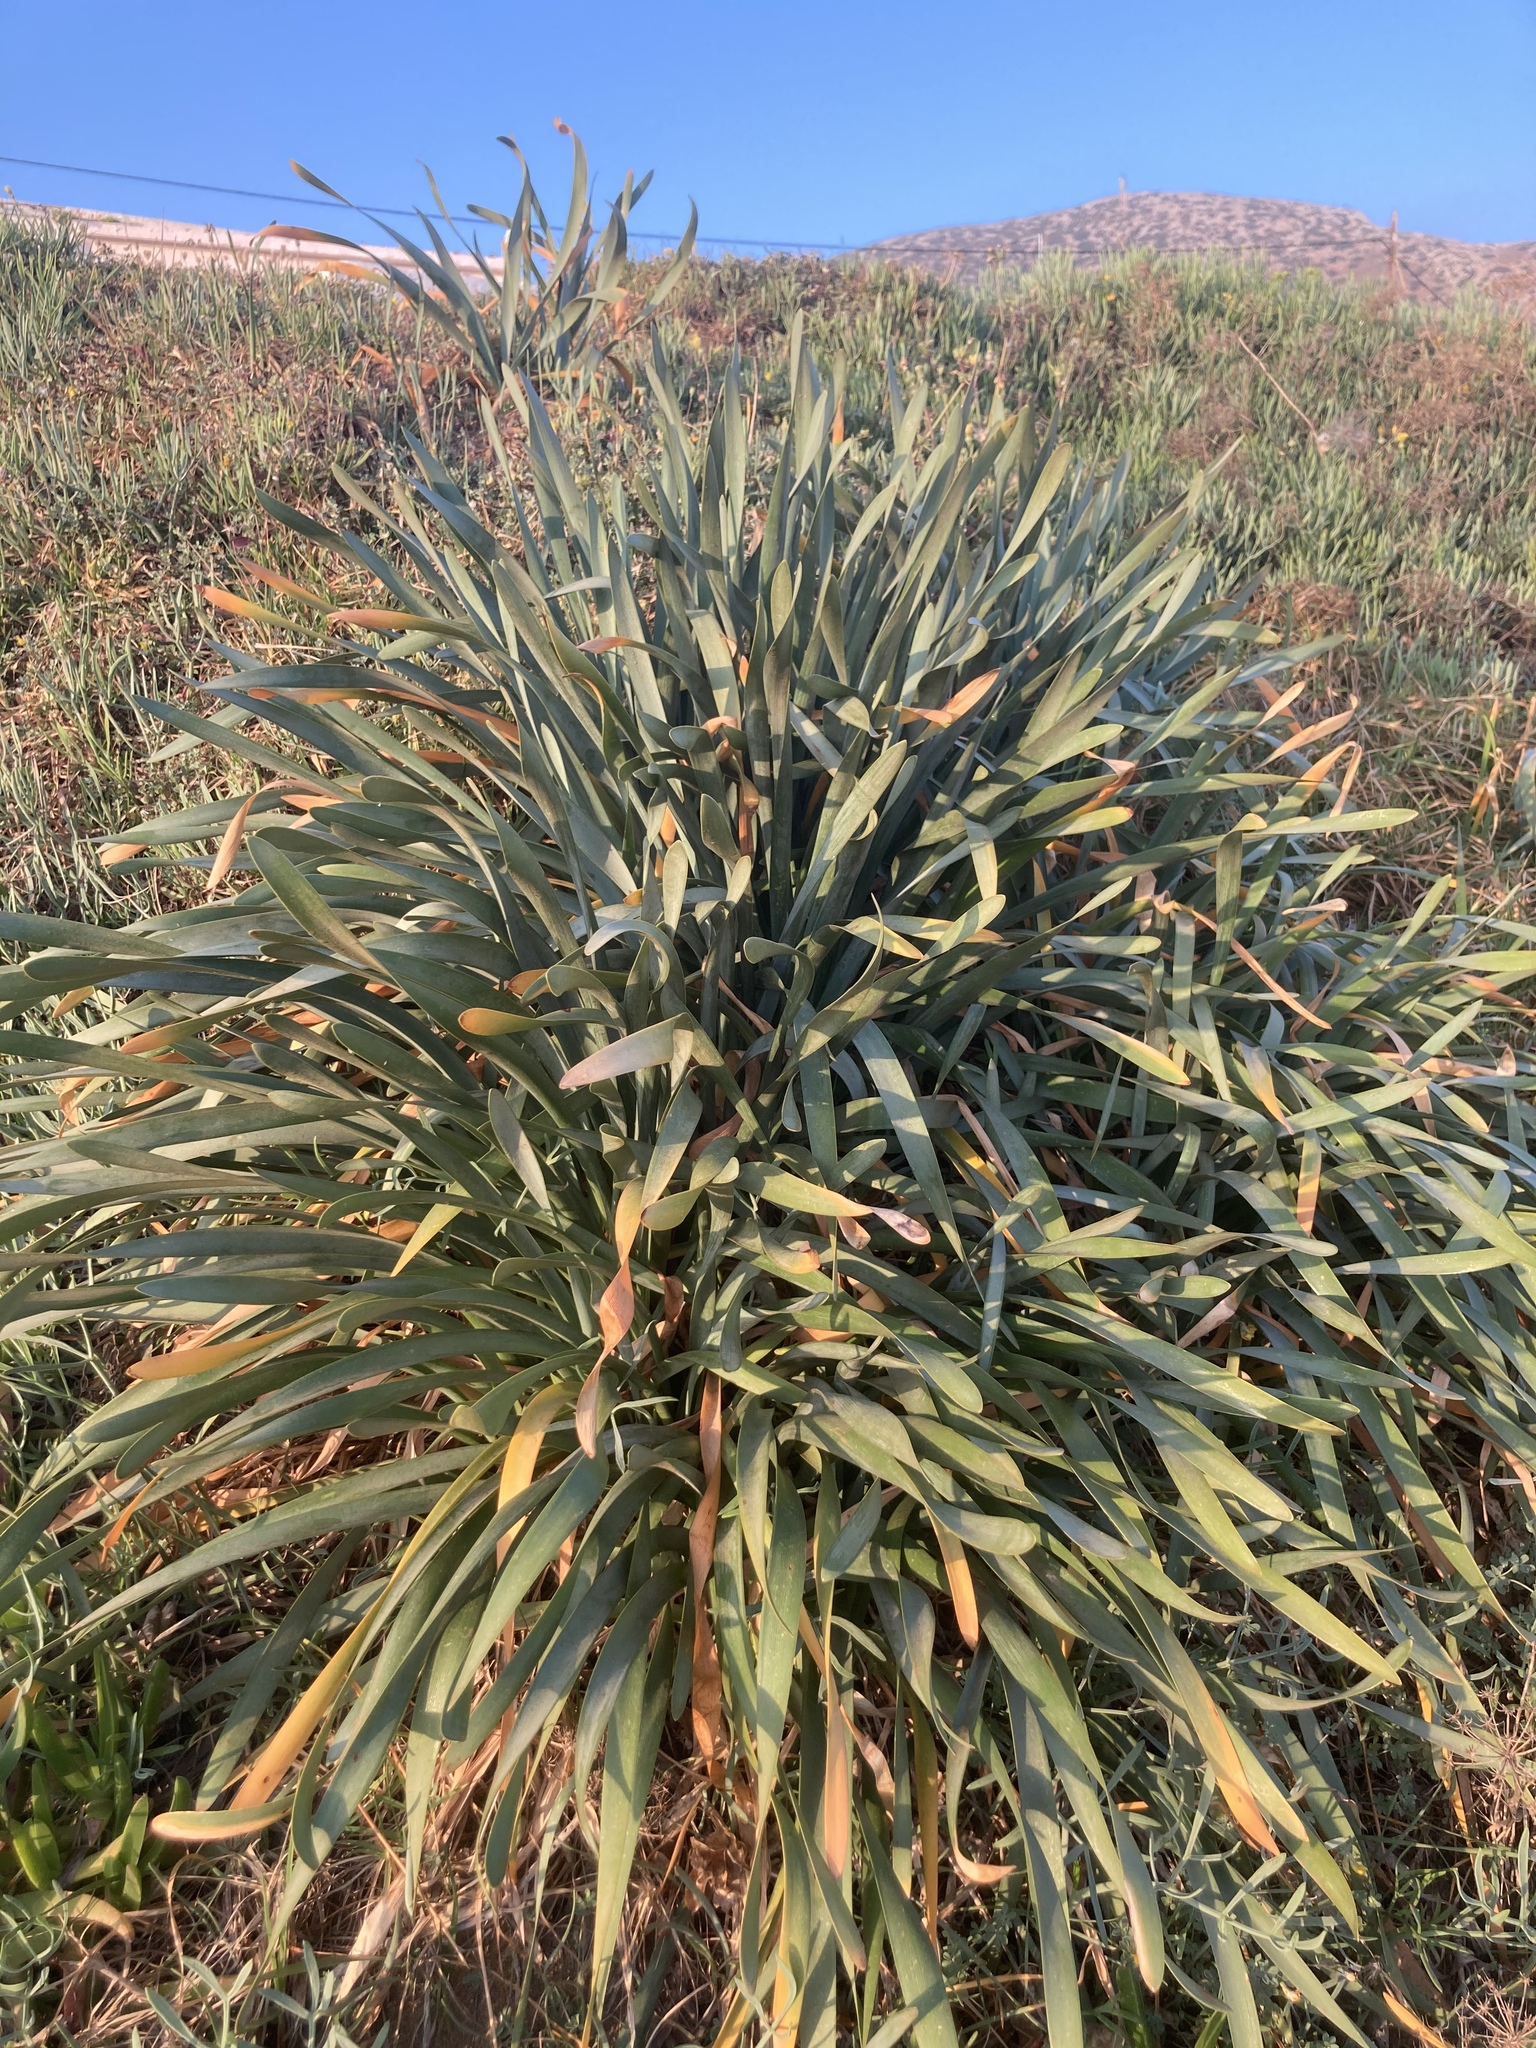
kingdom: Plantae
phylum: Tracheophyta
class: Liliopsida
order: Asparagales
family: Amaryllidaceae
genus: Pancratium
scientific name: Pancratium maritimum
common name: Sea-daffodil
